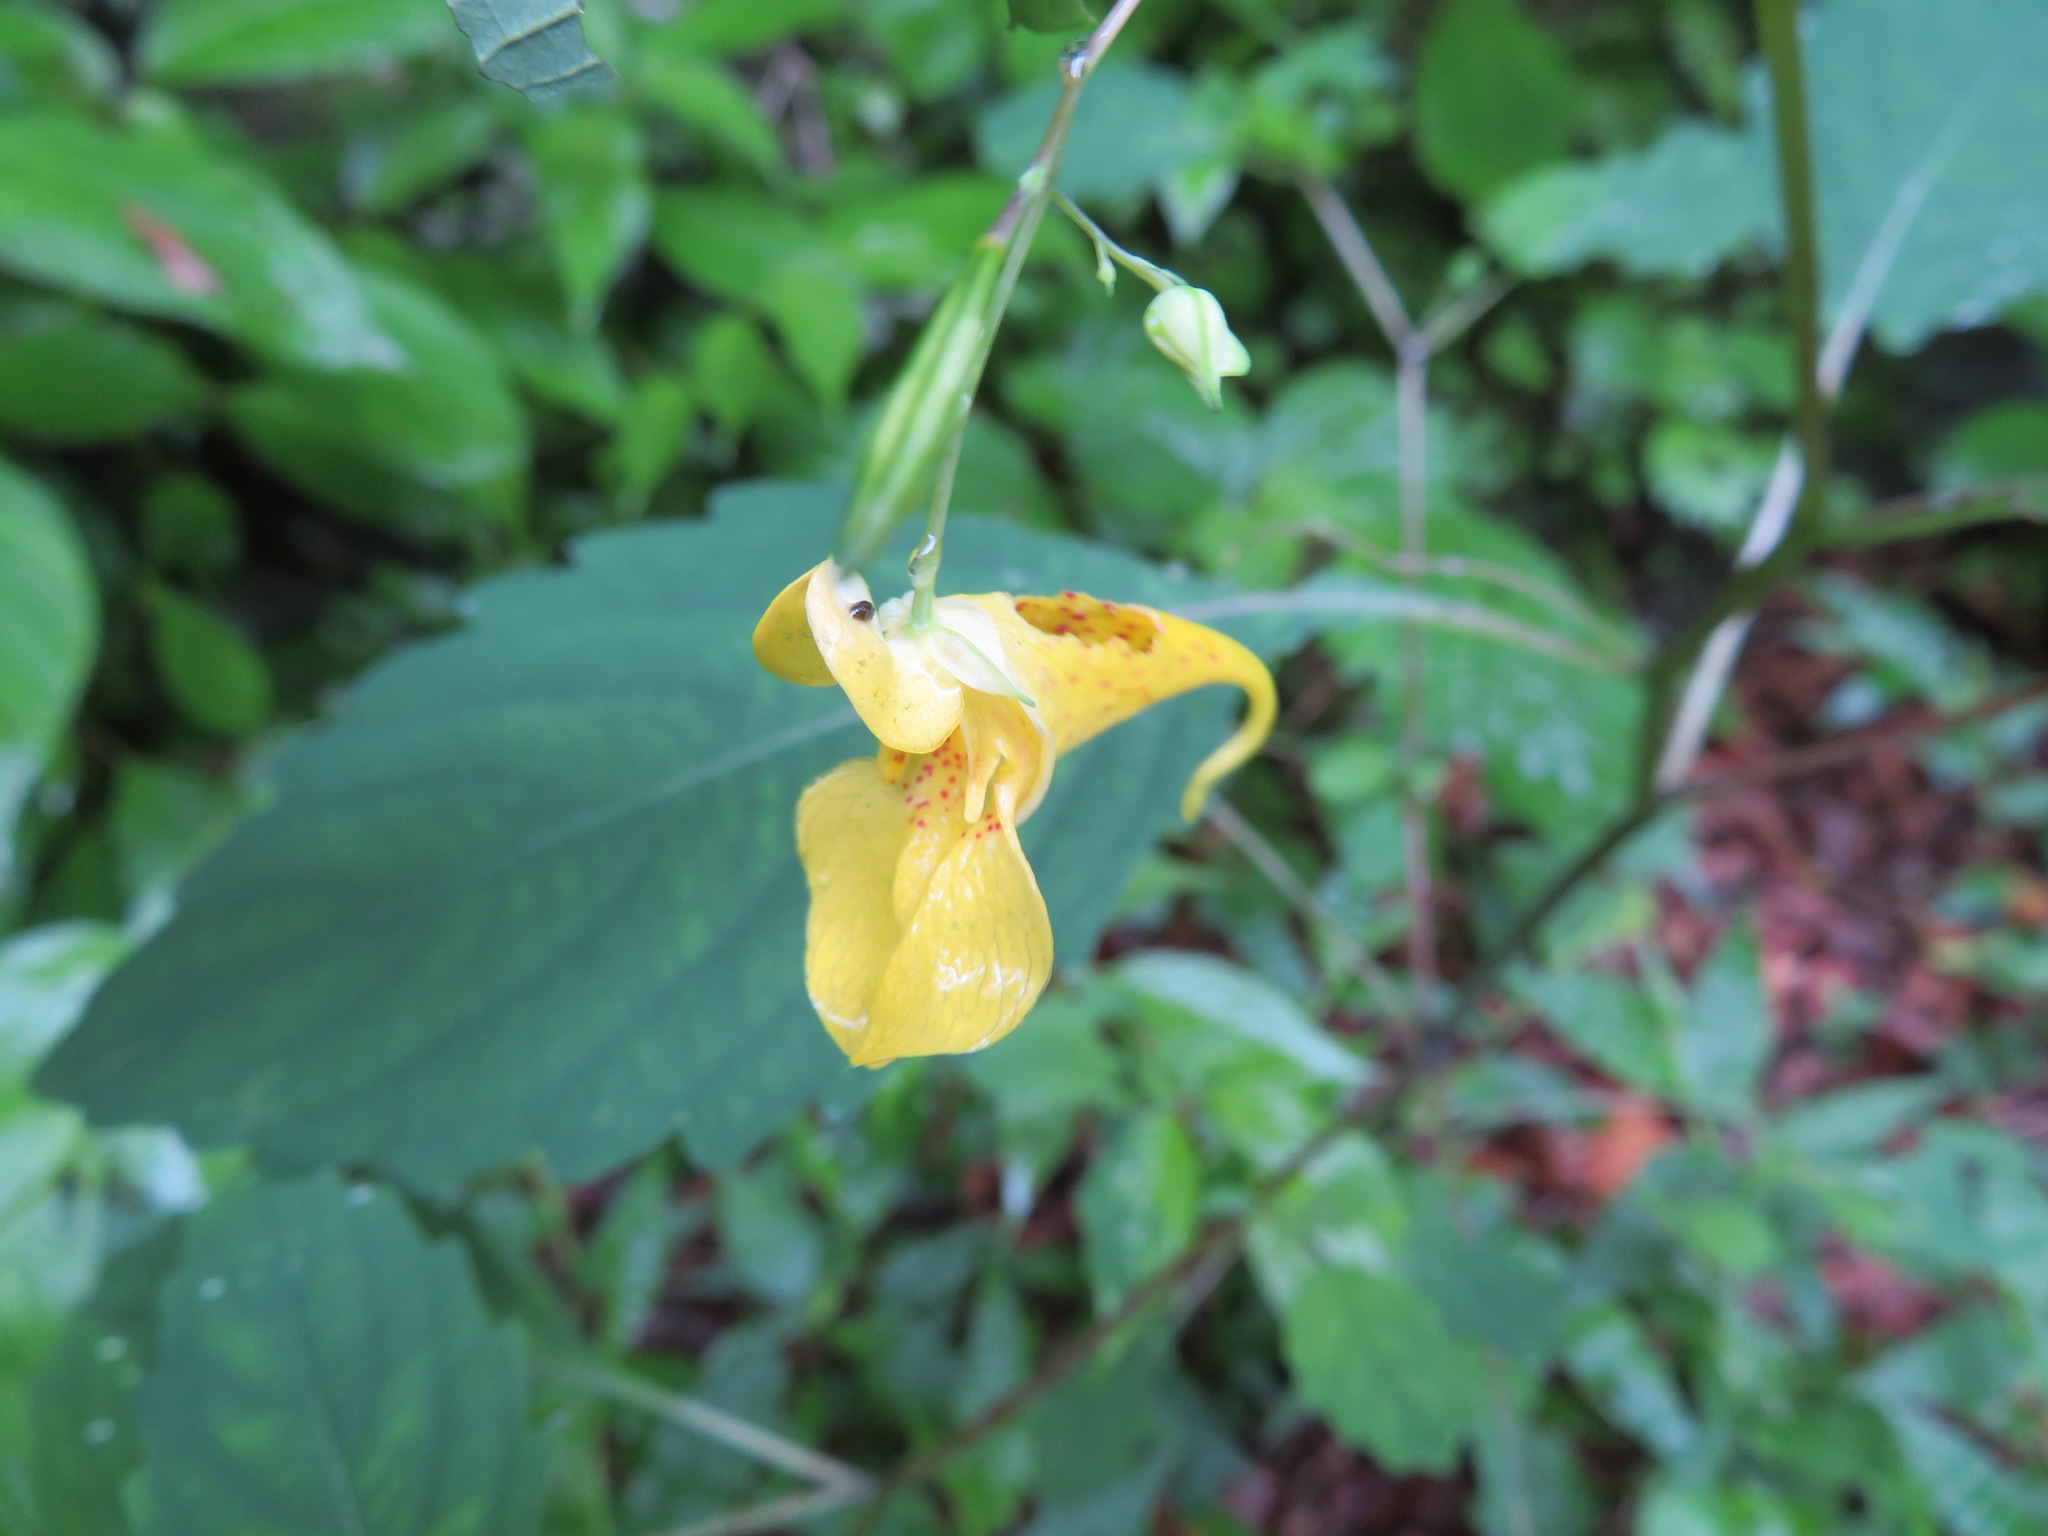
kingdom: Plantae
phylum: Tracheophyta
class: Magnoliopsida
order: Ericales
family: Balsaminaceae
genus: Impatiens
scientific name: Impatiens noli-tangere
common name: Touch-me-not balsam
